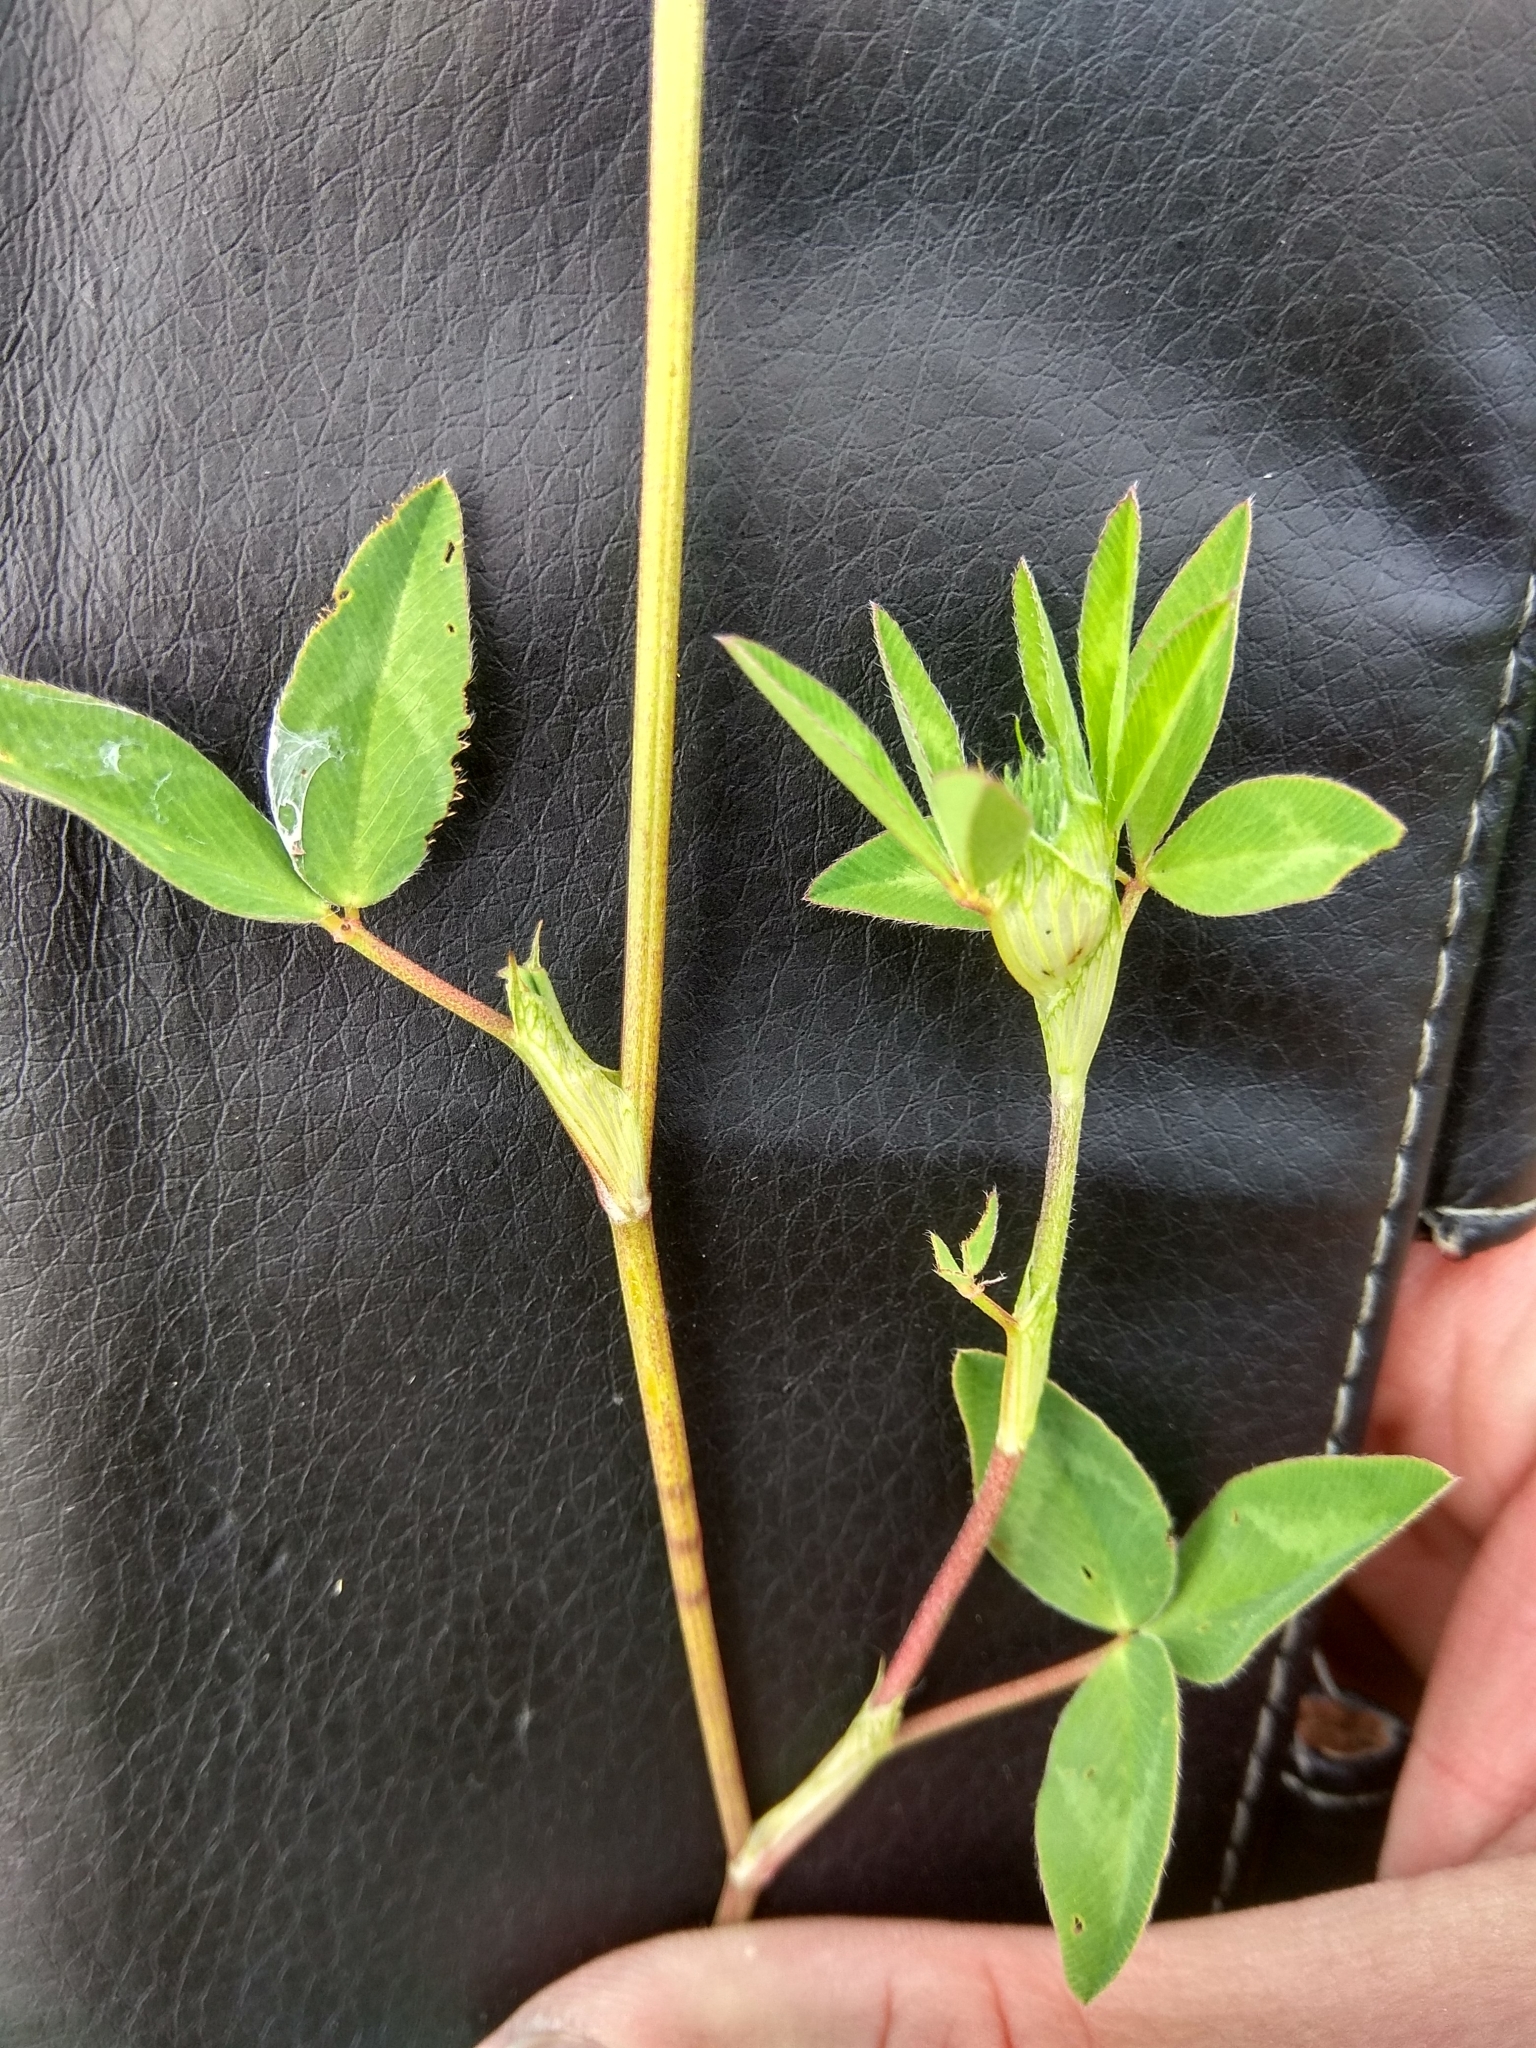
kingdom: Plantae
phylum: Tracheophyta
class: Magnoliopsida
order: Fabales
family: Fabaceae
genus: Trifolium
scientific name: Trifolium pratense
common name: Red clover
